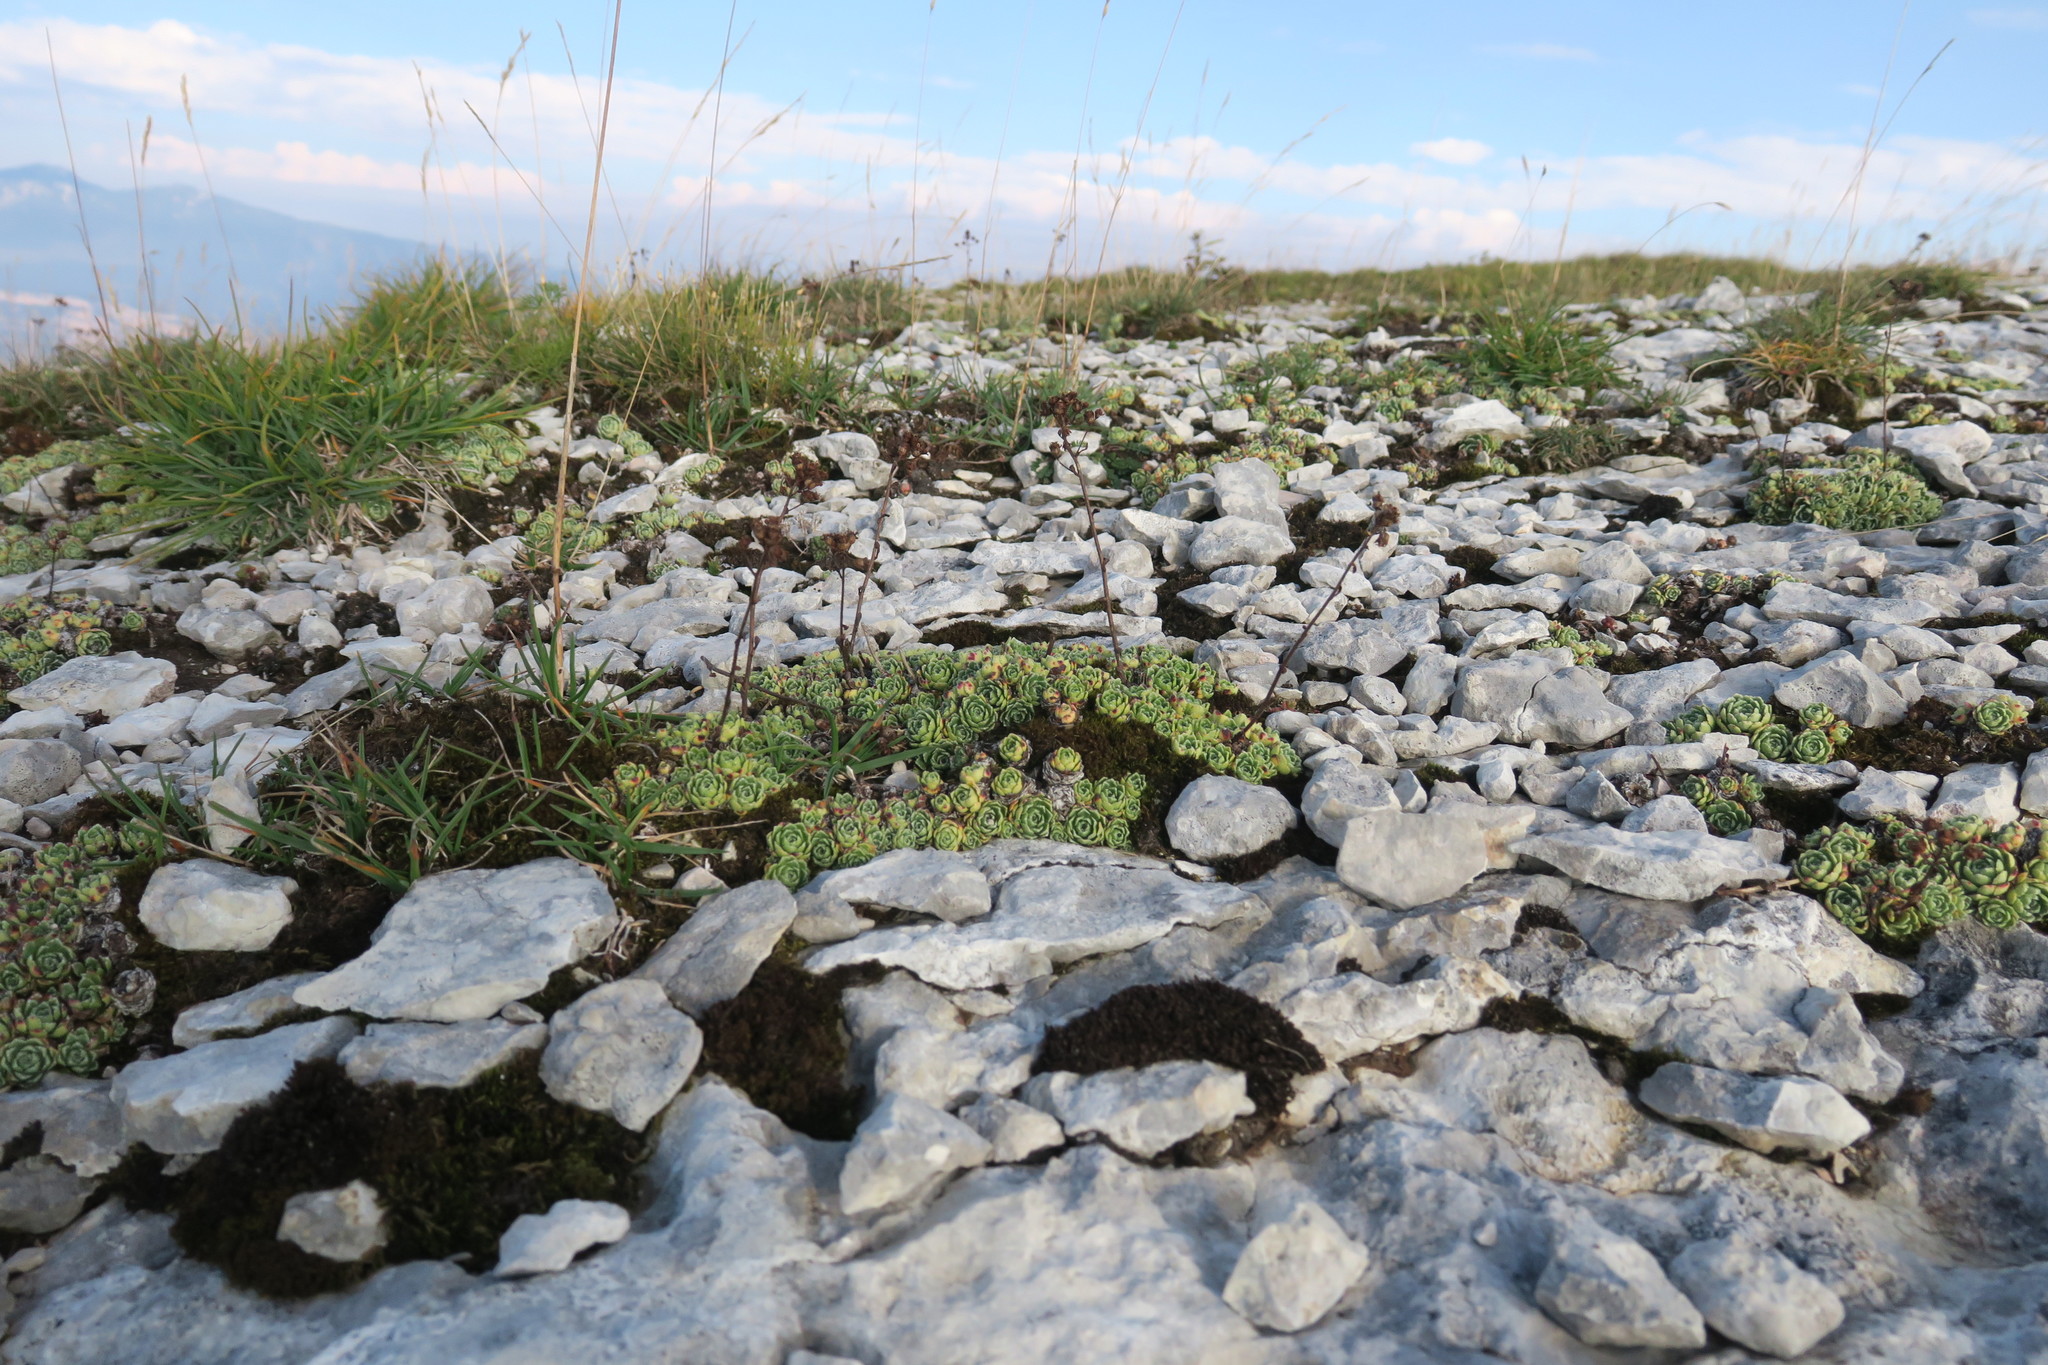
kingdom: Plantae
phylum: Tracheophyta
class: Magnoliopsida
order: Saxifragales
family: Saxifragaceae
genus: Saxifraga
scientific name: Saxifraga paniculata
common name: Livelong saxifrage
